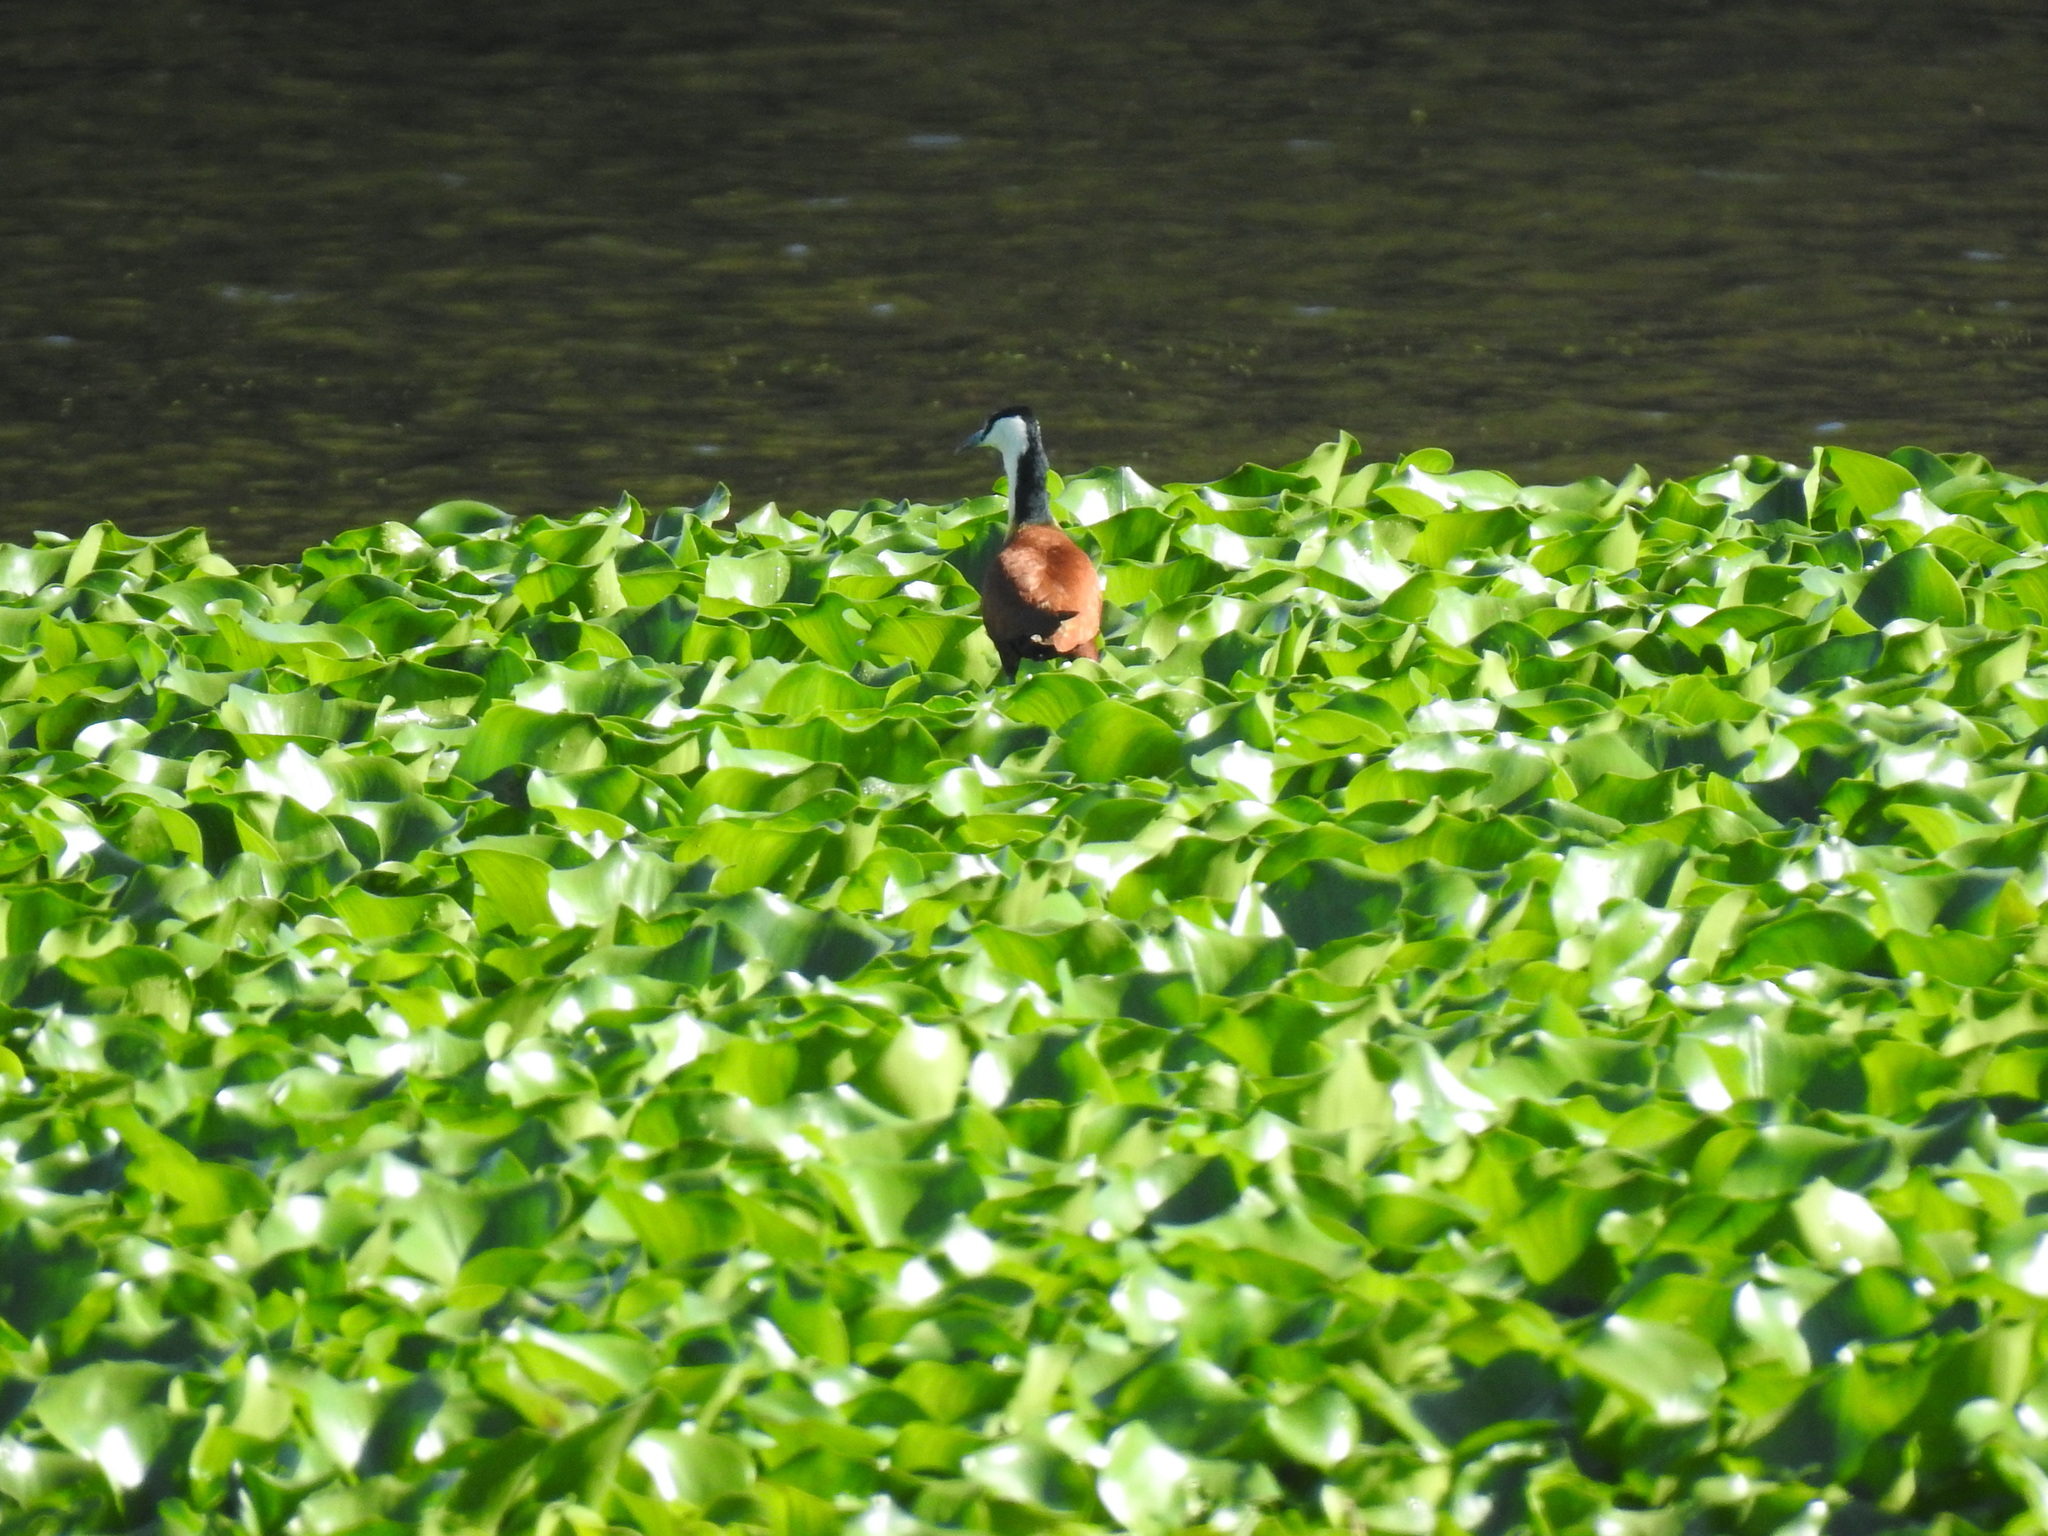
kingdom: Animalia
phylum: Chordata
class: Aves
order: Charadriiformes
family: Jacanidae
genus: Actophilornis
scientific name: Actophilornis africanus
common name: African jacana
